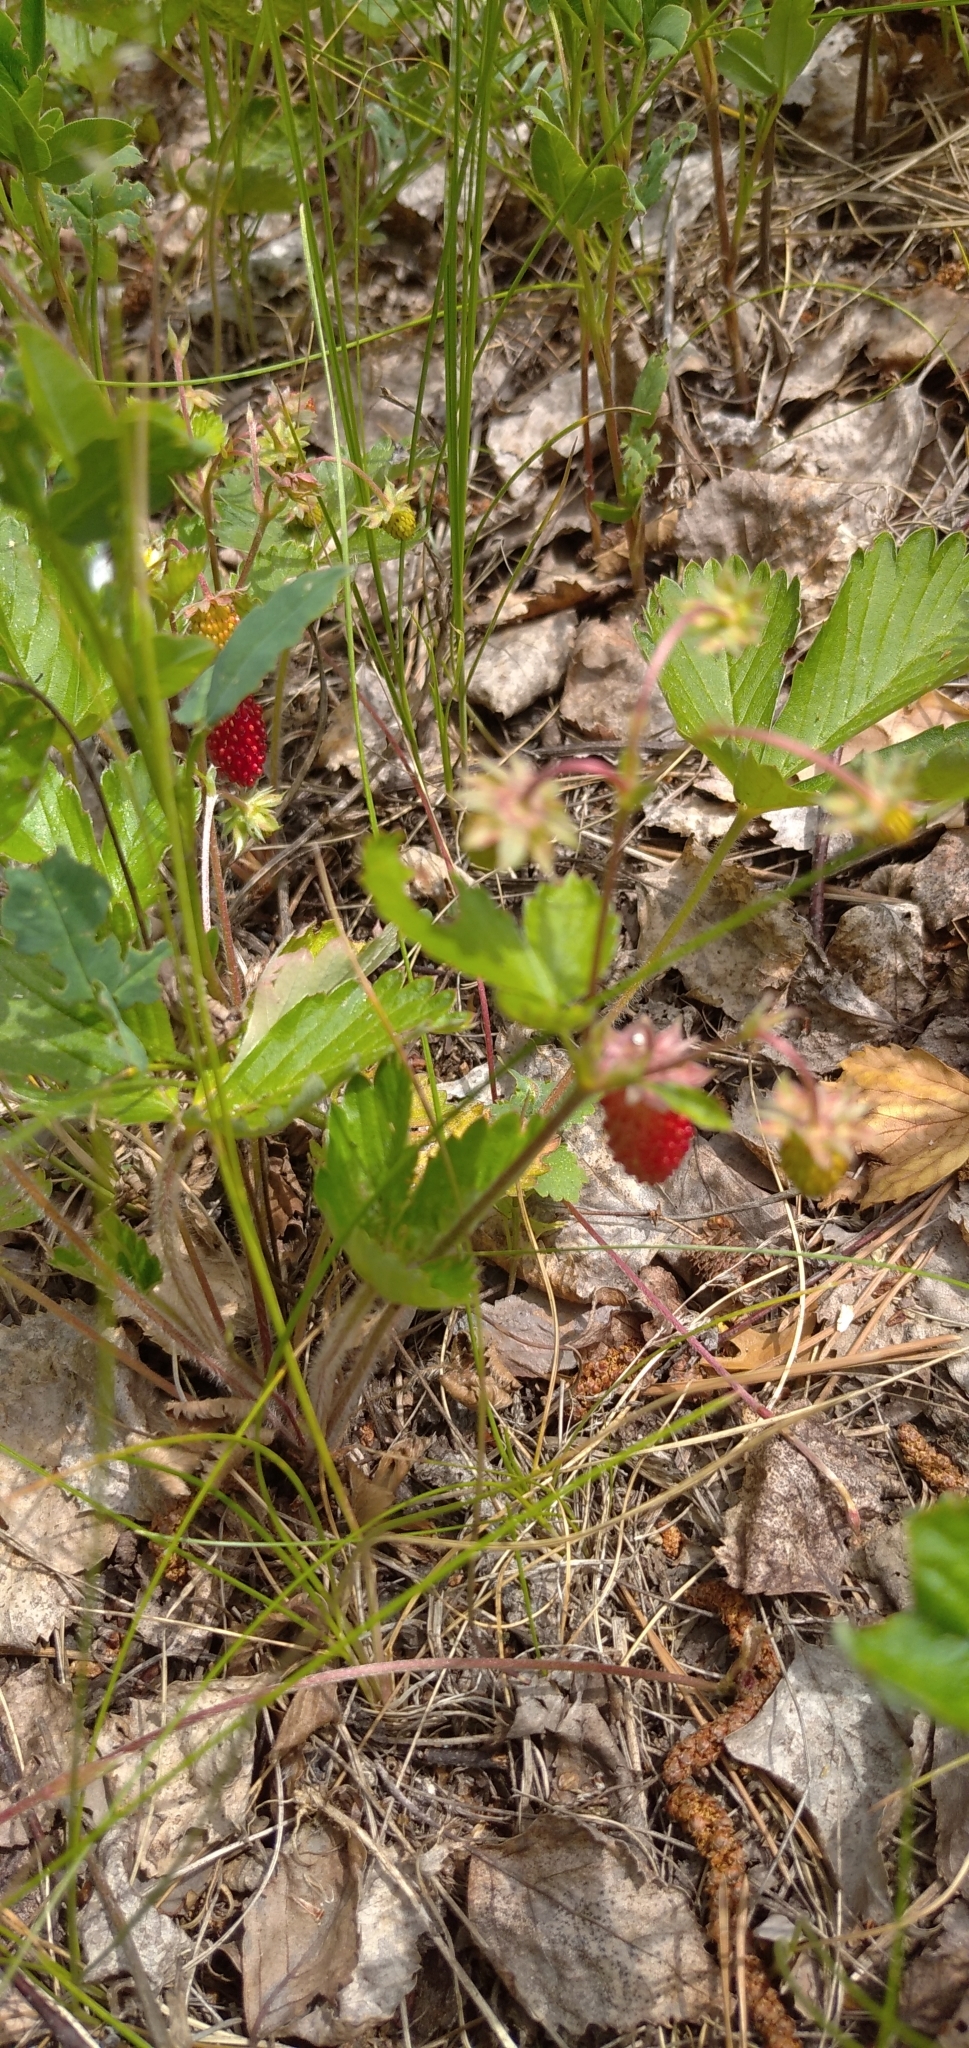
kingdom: Plantae
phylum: Tracheophyta
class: Magnoliopsida
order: Rosales
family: Rosaceae
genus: Fragaria
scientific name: Fragaria vesca
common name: Wild strawberry
